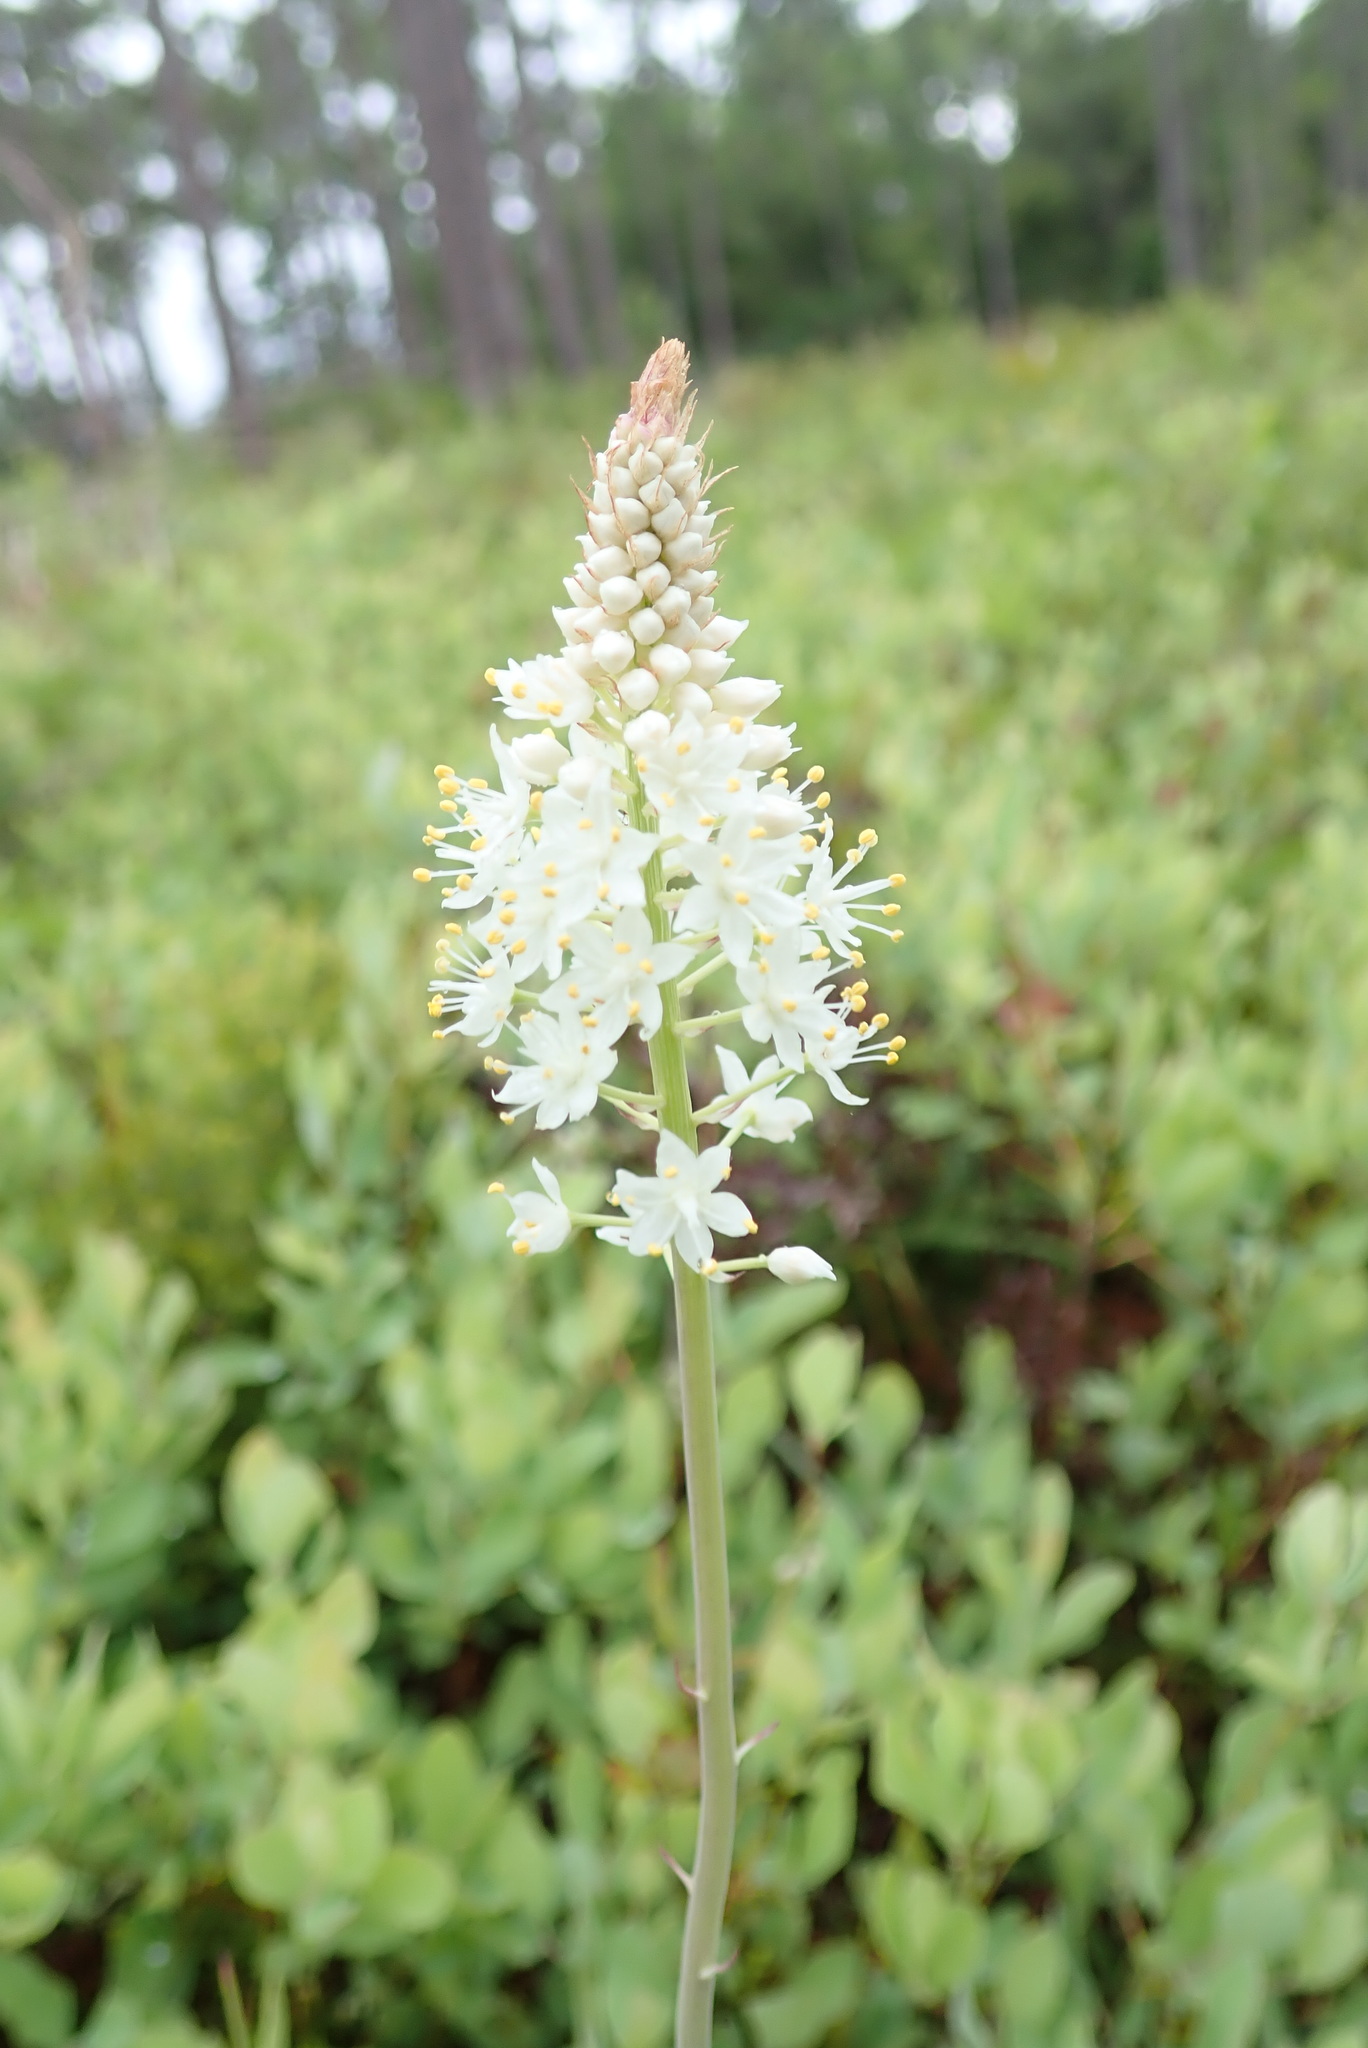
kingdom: Plantae
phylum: Tracheophyta
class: Liliopsida
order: Liliales
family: Melanthiaceae
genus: Stenanthium
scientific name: Stenanthium densum
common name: Crow-poison
